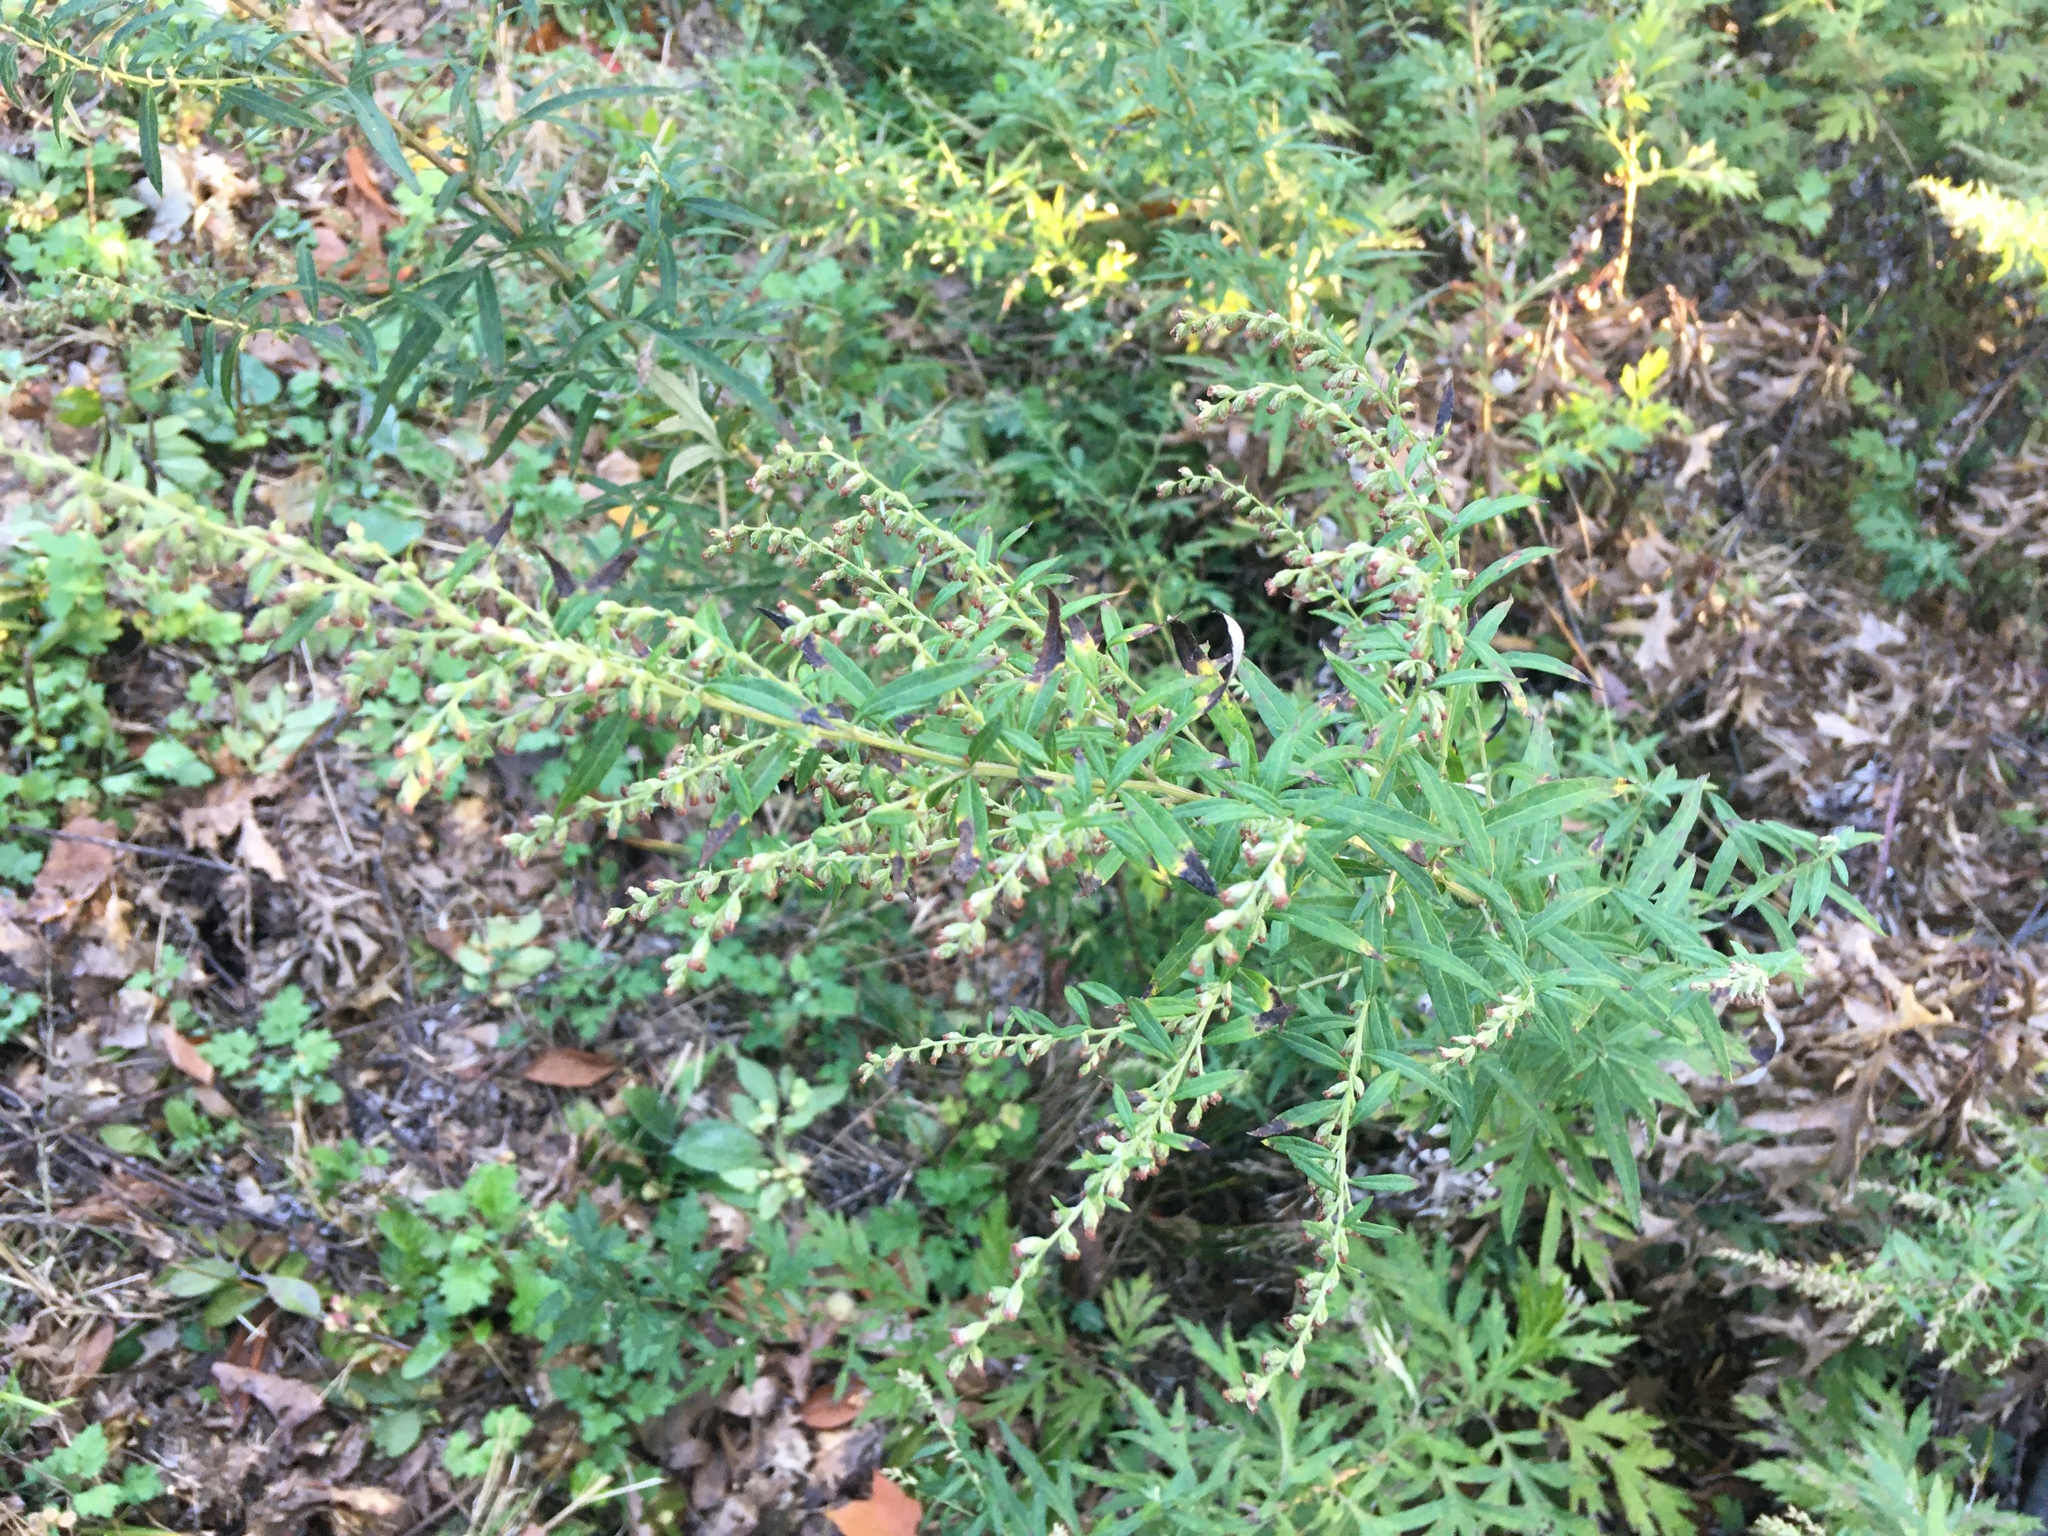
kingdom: Plantae
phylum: Tracheophyta
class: Magnoliopsida
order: Asterales
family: Asteraceae
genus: Artemisia
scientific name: Artemisia vulgaris
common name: Mugwort
